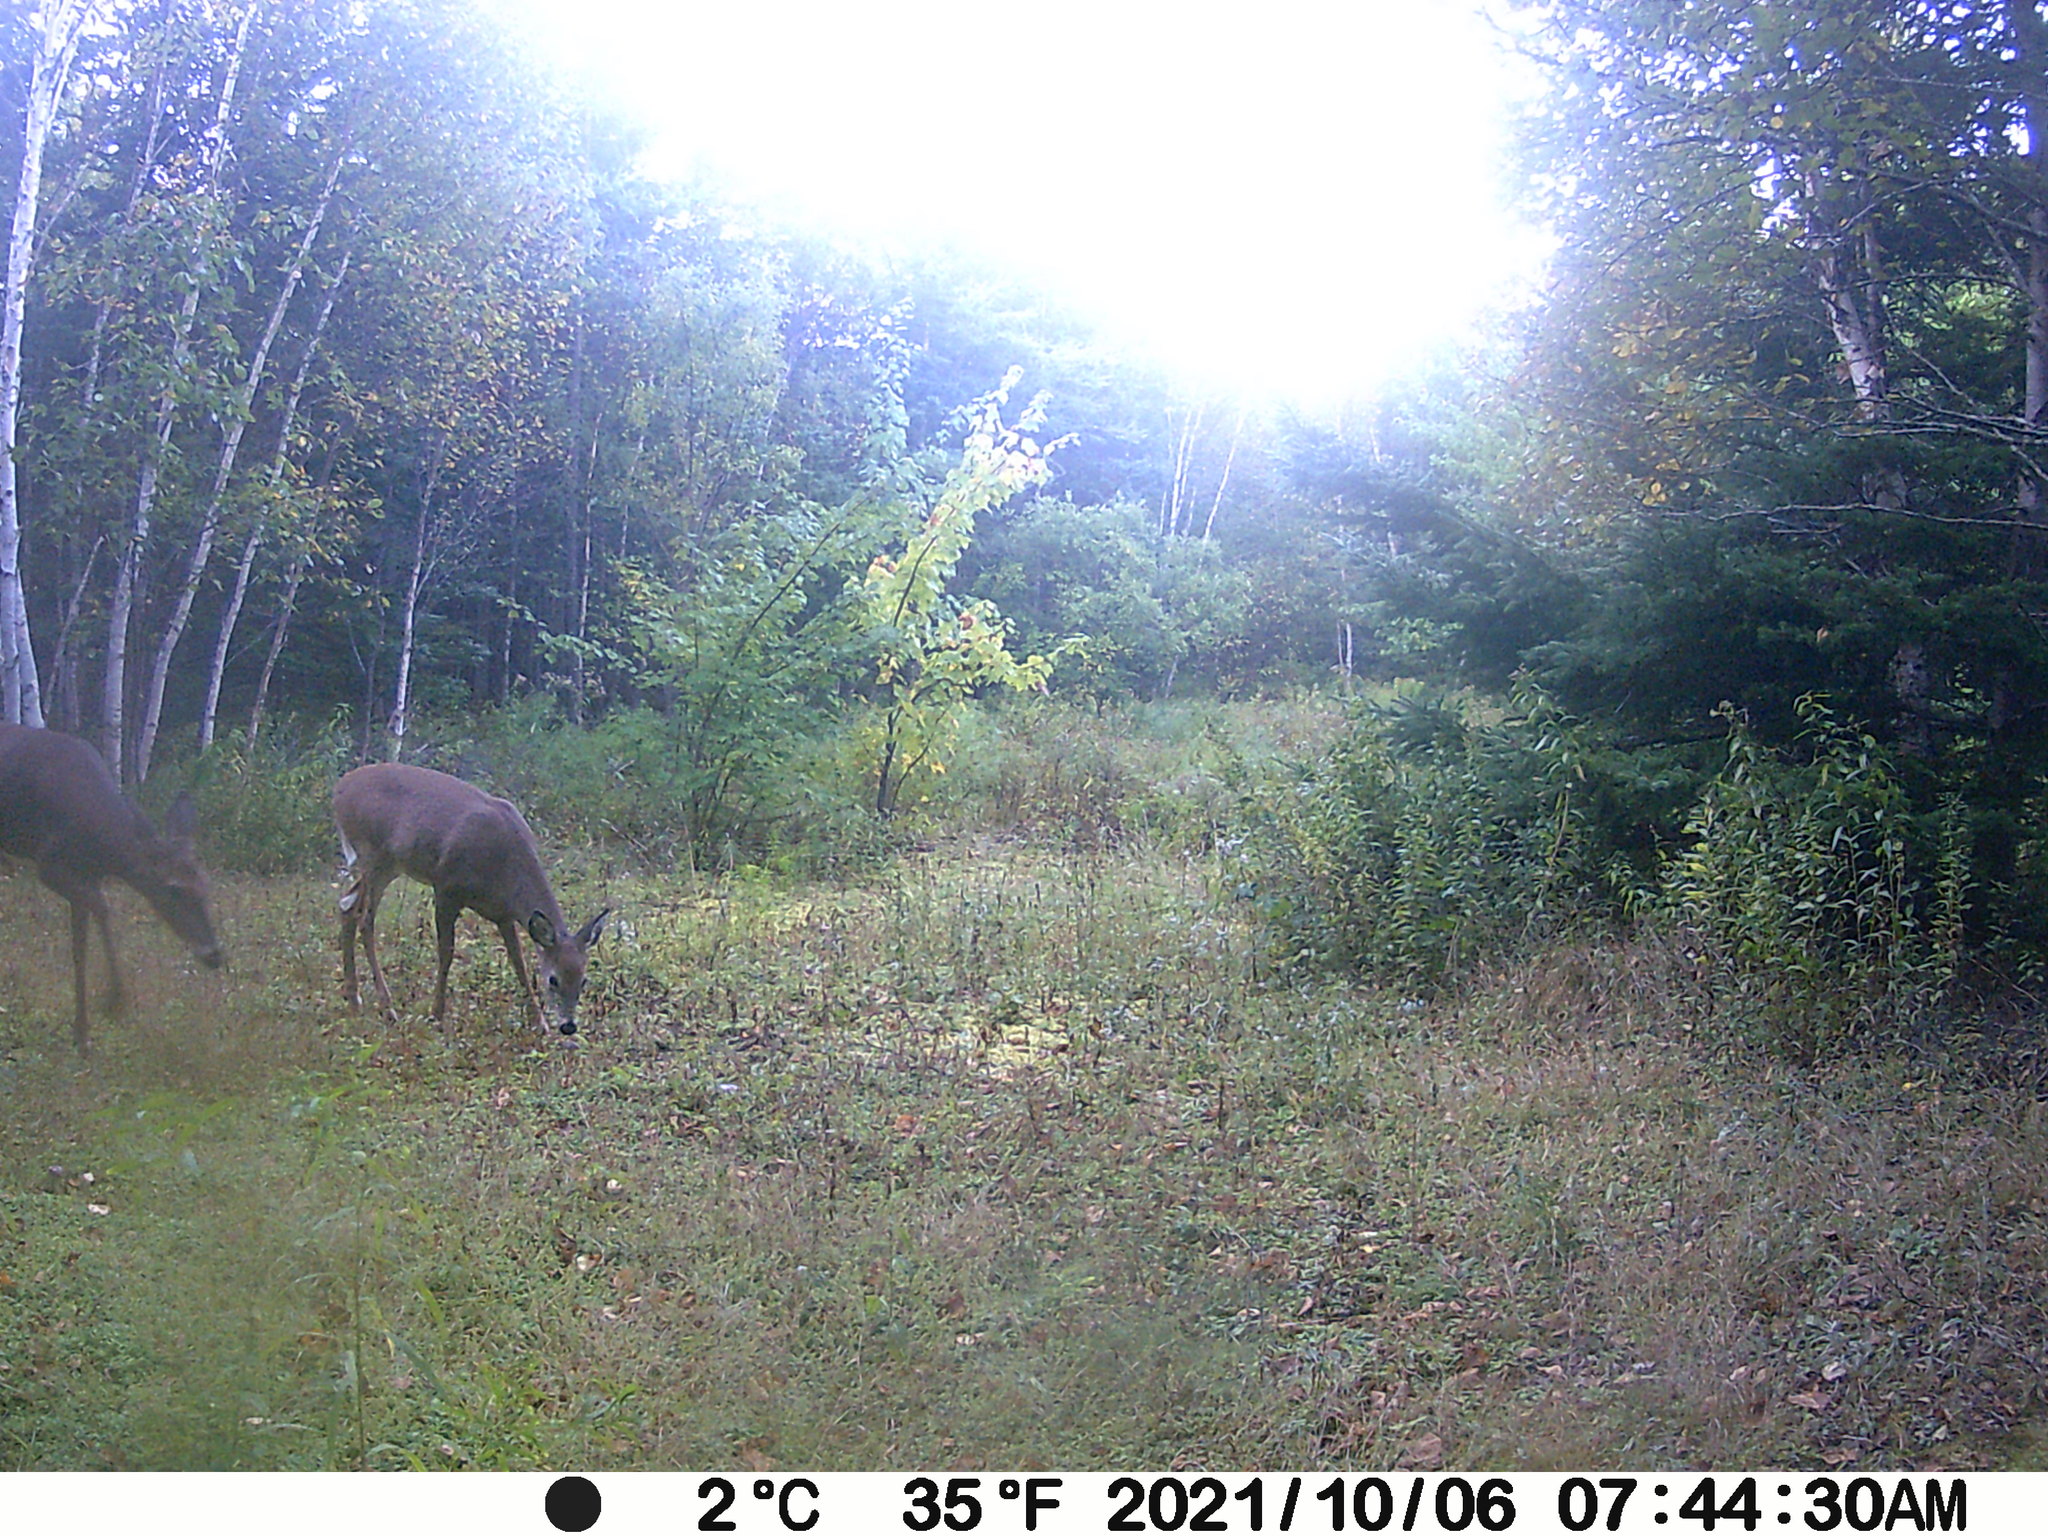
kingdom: Animalia
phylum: Chordata
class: Mammalia
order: Artiodactyla
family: Cervidae
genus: Odocoileus
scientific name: Odocoileus virginianus
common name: White-tailed deer
